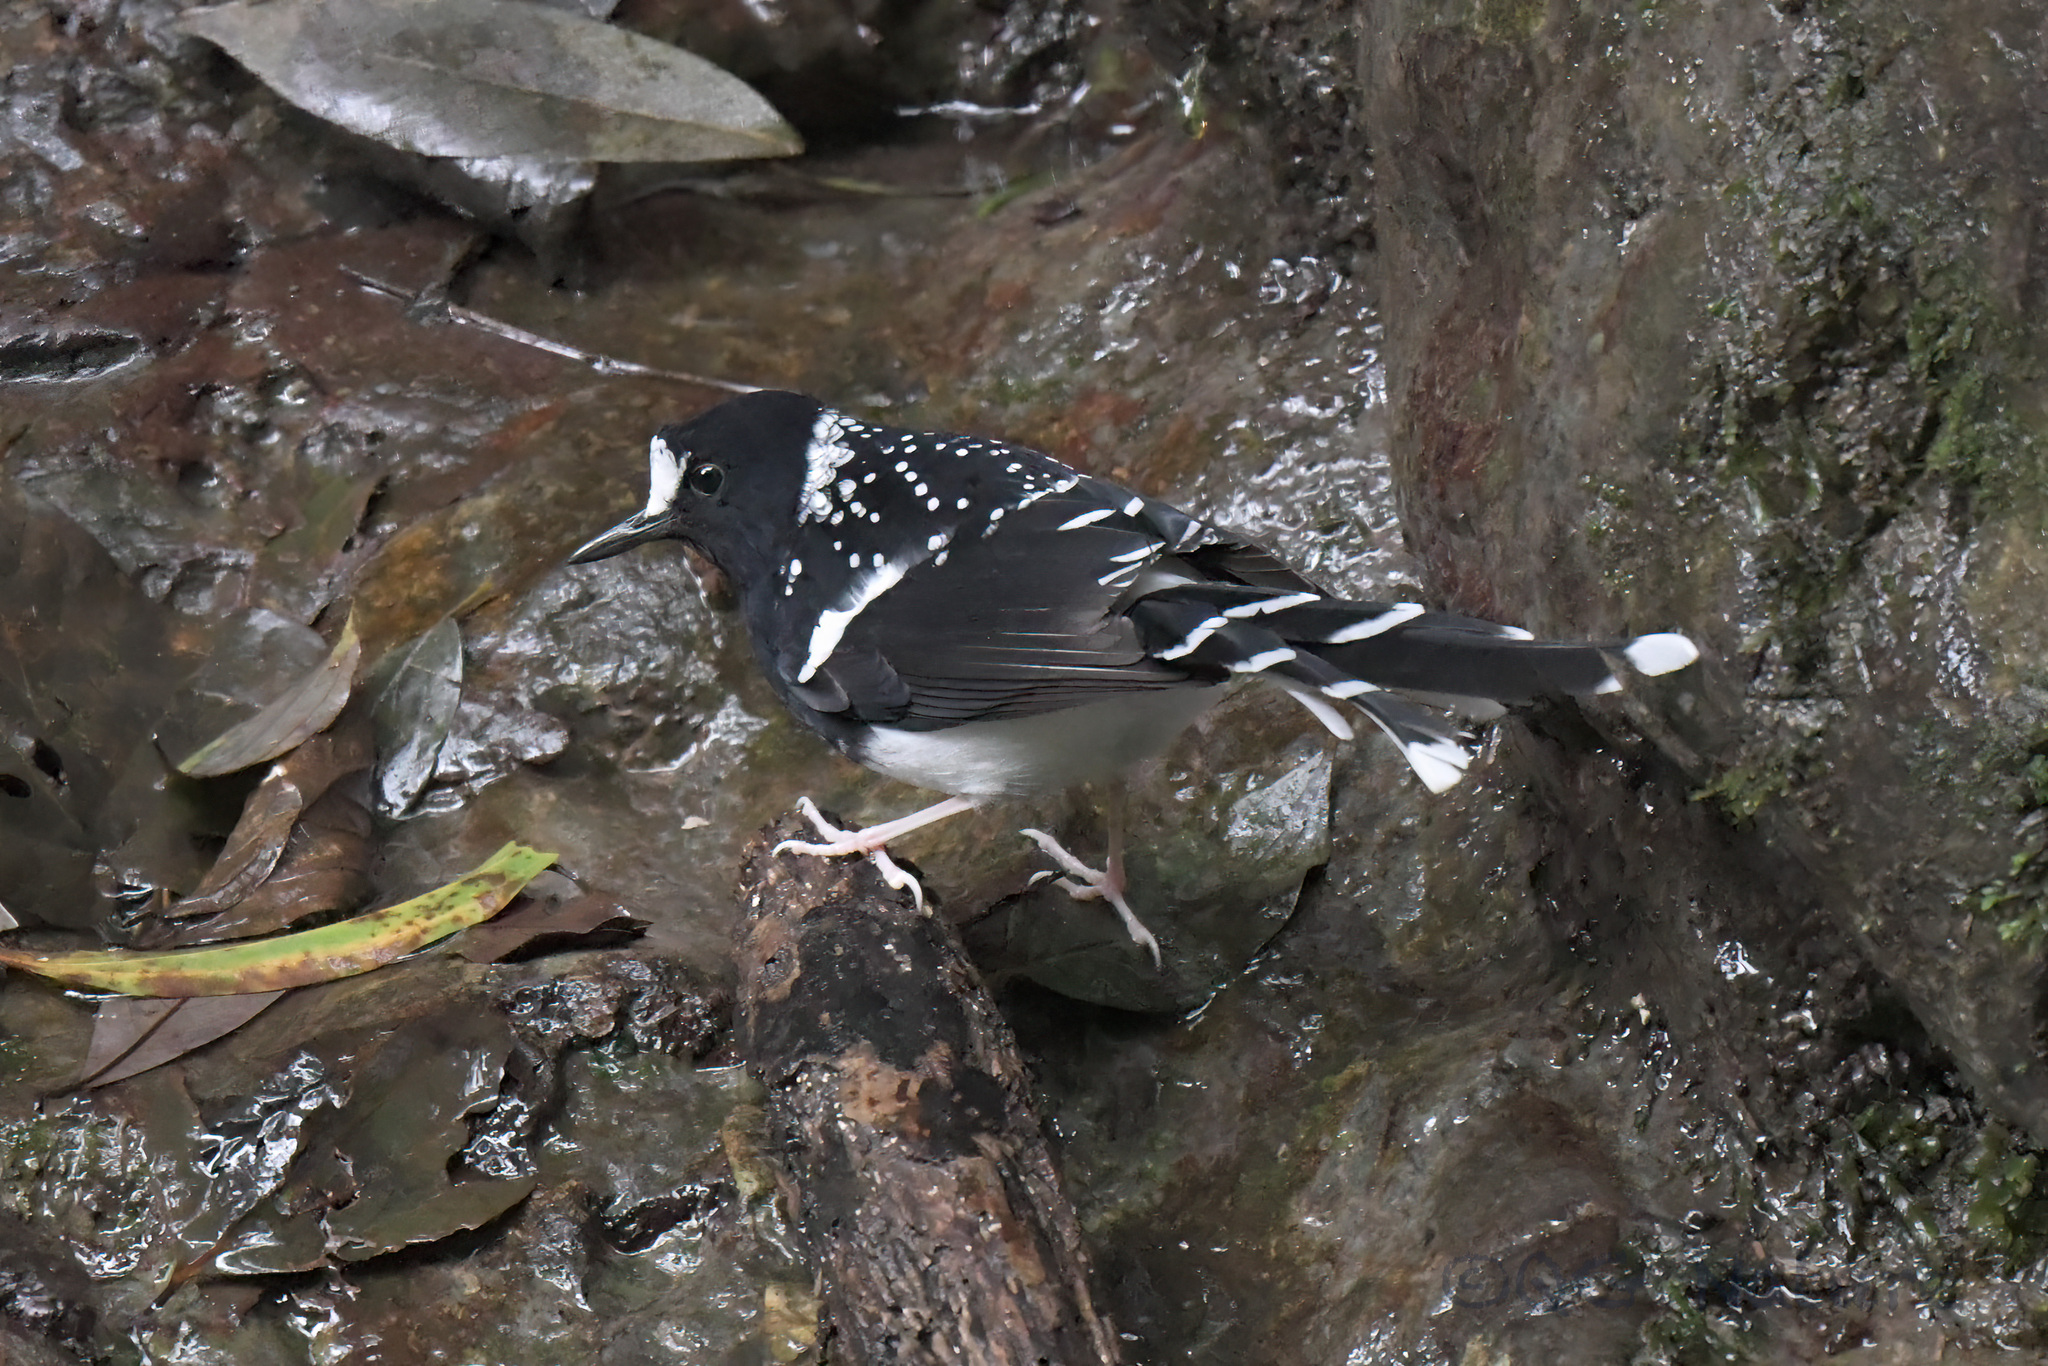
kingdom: Animalia
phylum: Chordata
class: Aves
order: Passeriformes
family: Muscicapidae
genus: Enicurus
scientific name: Enicurus maculatus
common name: Spotted forktail
